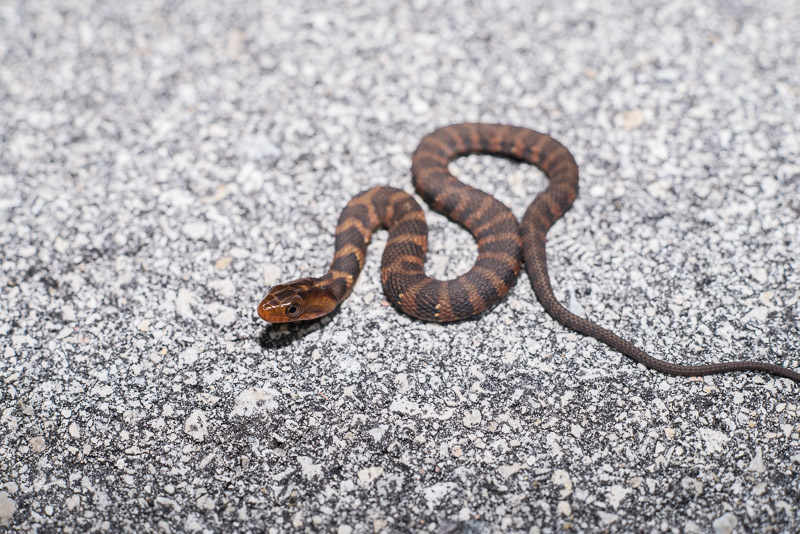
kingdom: Animalia
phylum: Chordata
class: Squamata
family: Colubridae
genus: Nerodia
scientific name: Nerodia fasciata
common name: Southern water snake
